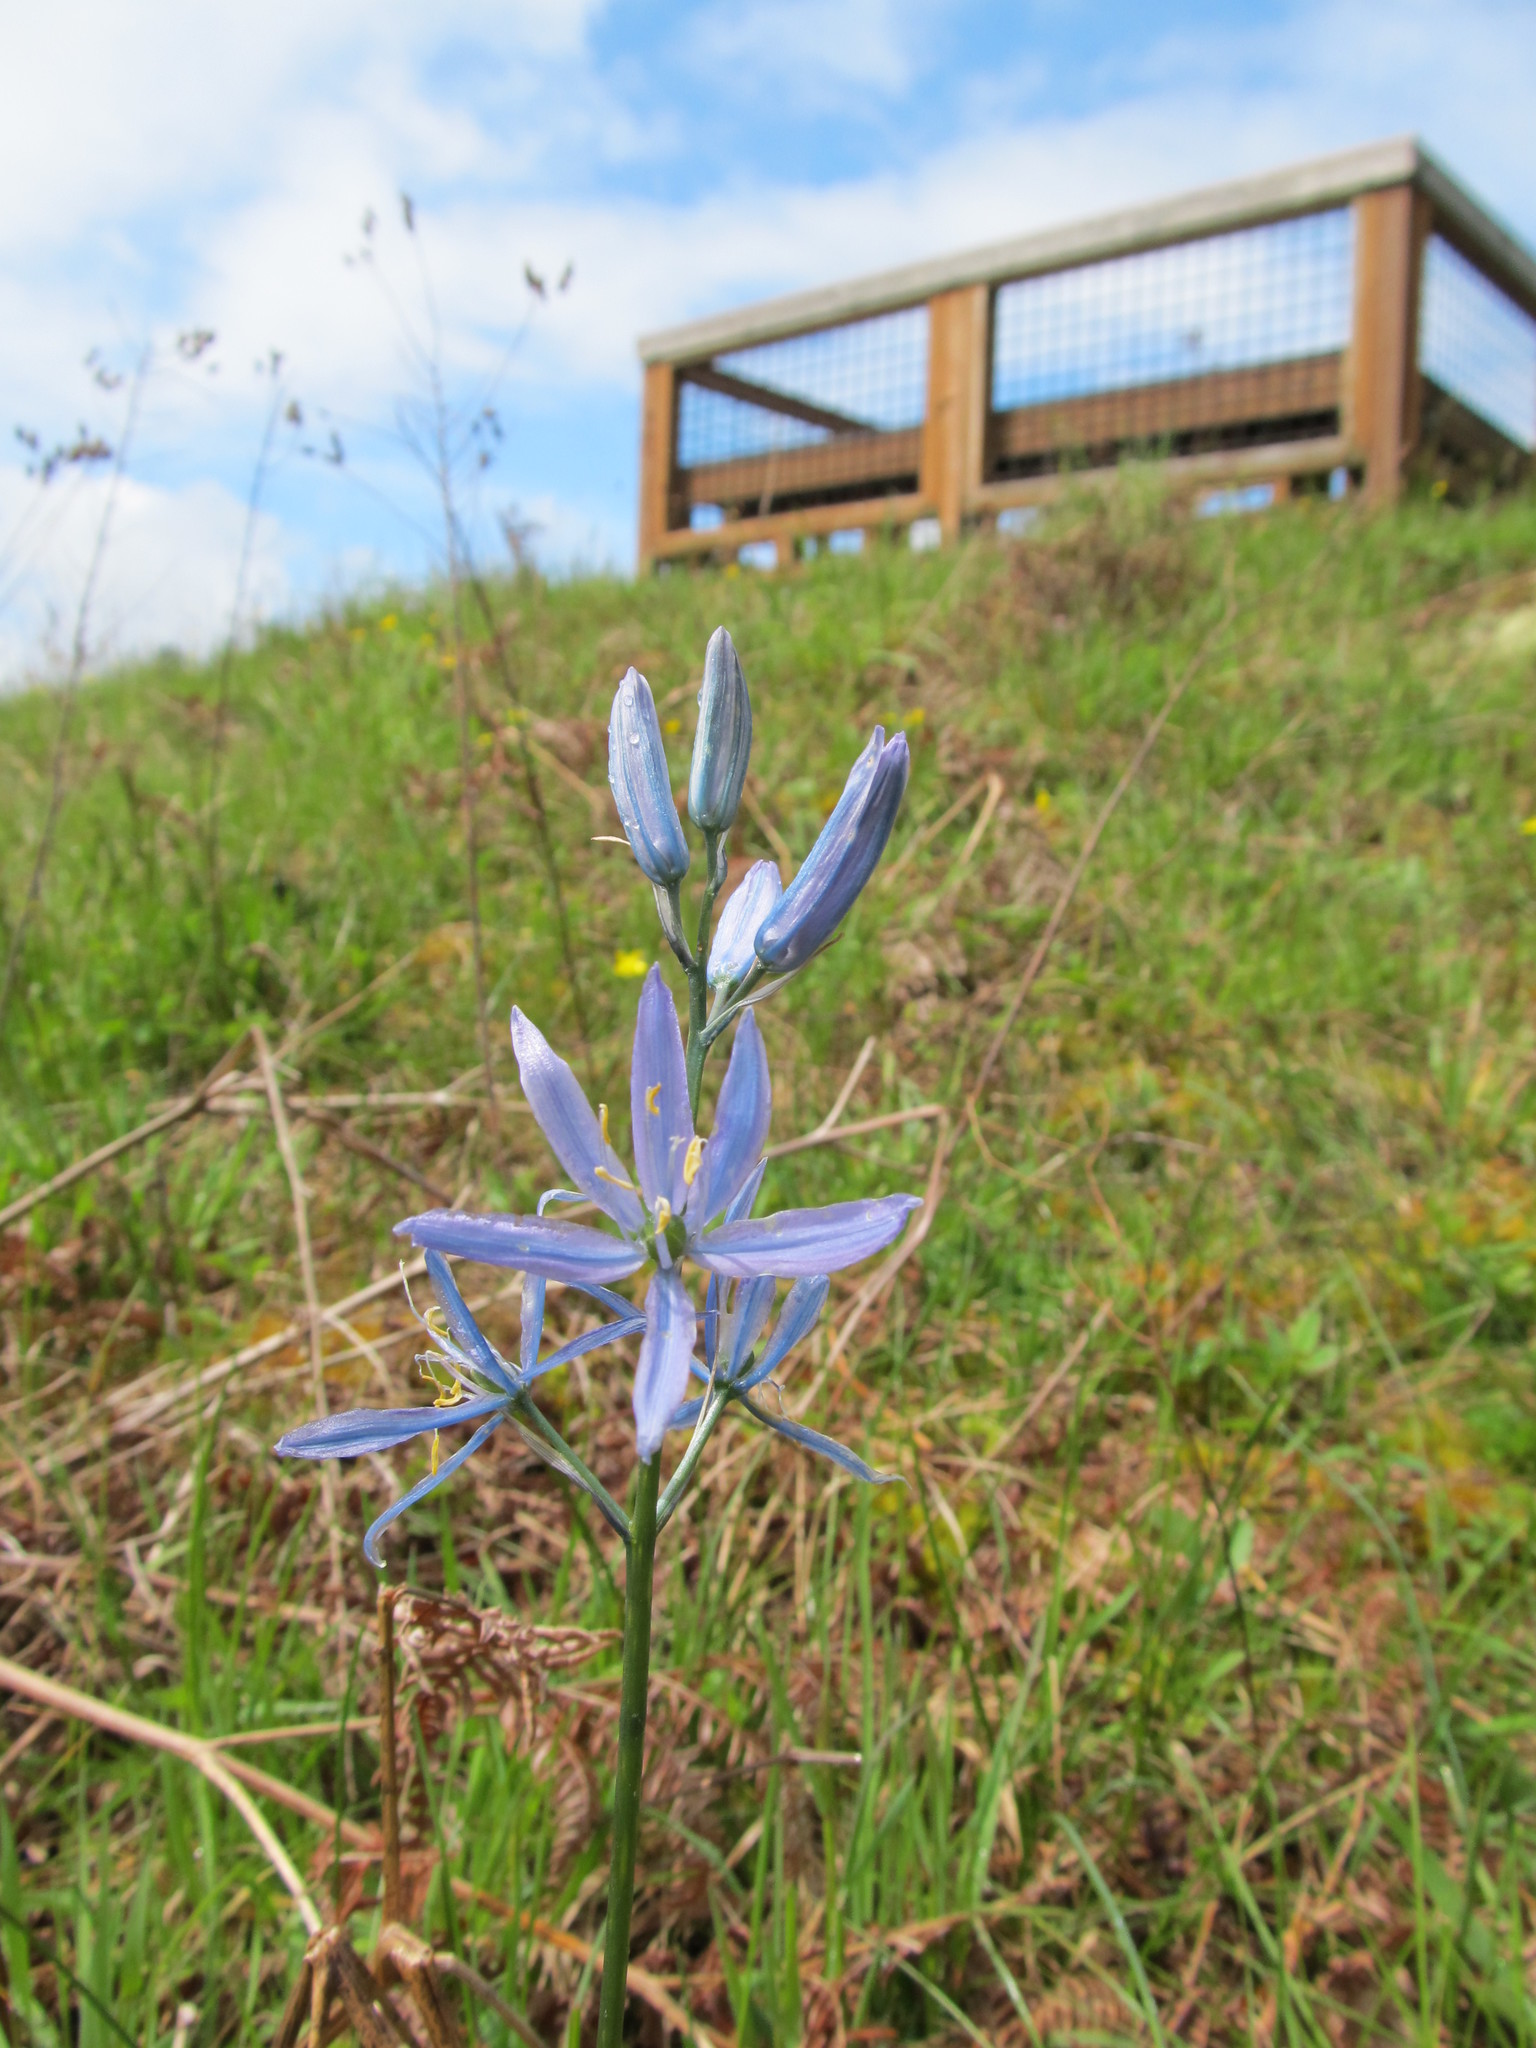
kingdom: Plantae
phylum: Tracheophyta
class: Liliopsida
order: Asparagales
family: Asparagaceae
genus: Camassia
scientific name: Camassia quamash
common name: Common camas
